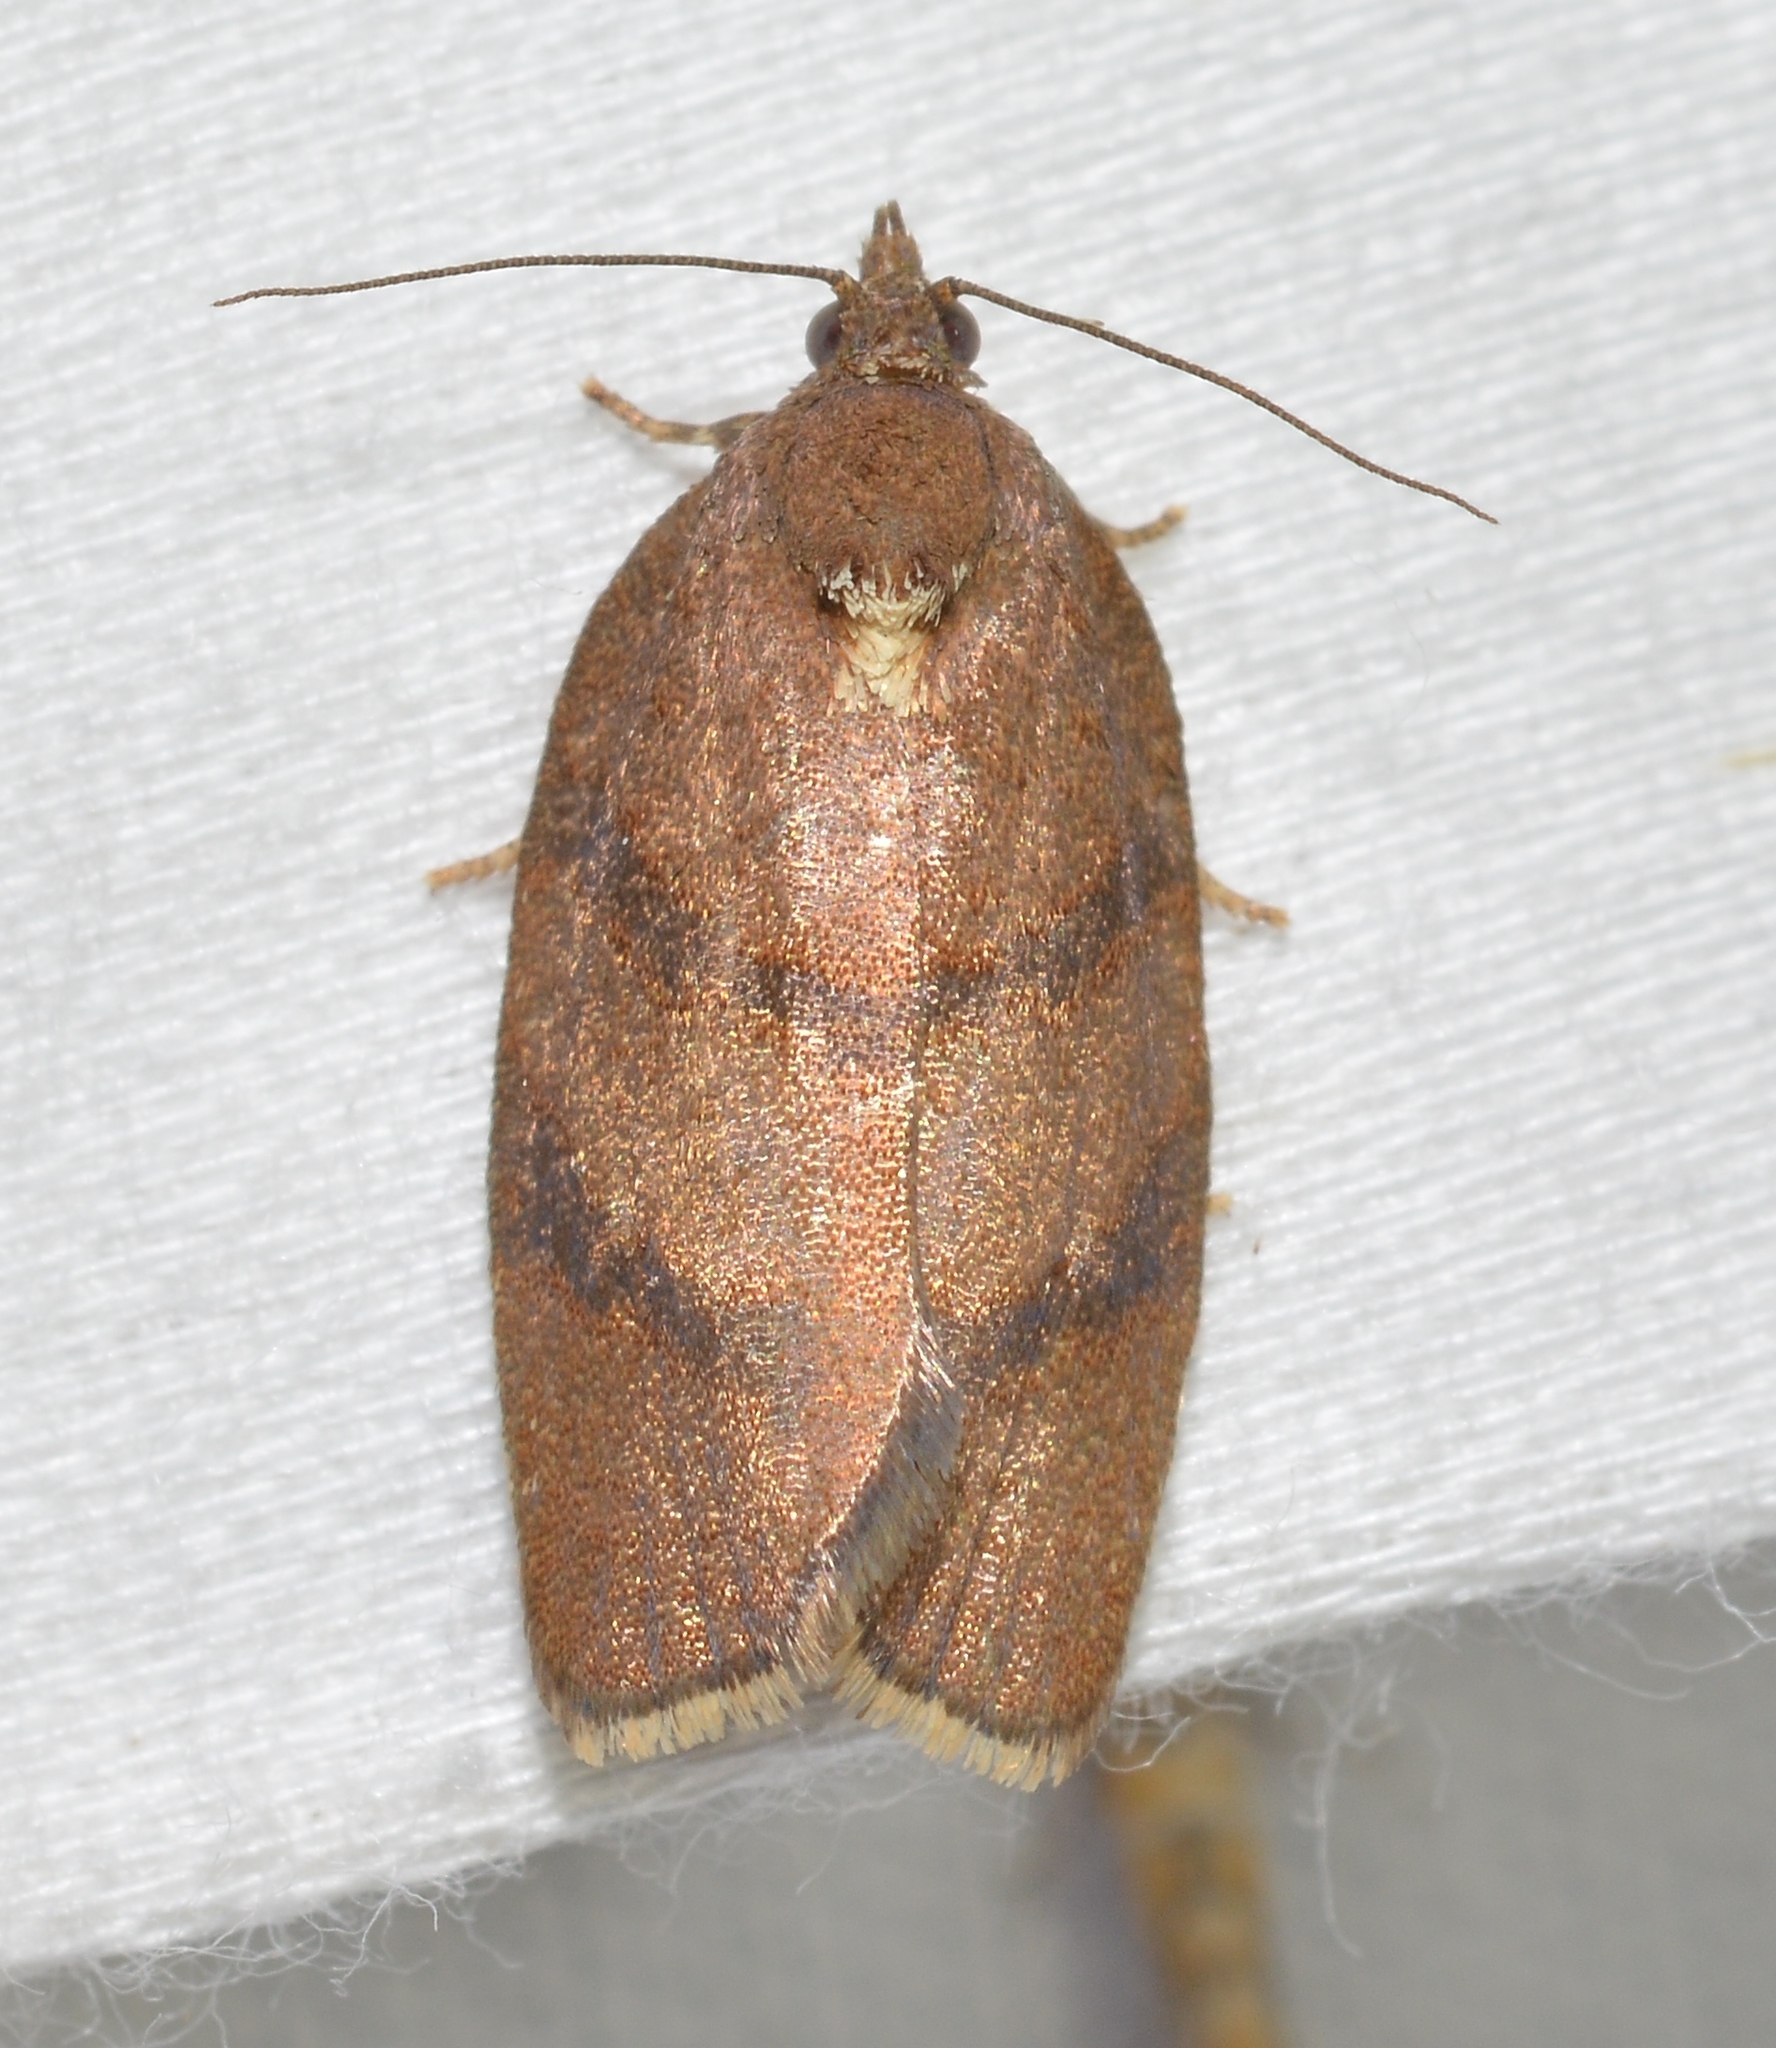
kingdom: Animalia
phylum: Arthropoda
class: Insecta
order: Lepidoptera
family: Tortricidae
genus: Argyrotaenia
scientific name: Argyrotaenia juglandana
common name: Hickory leafroller moth
